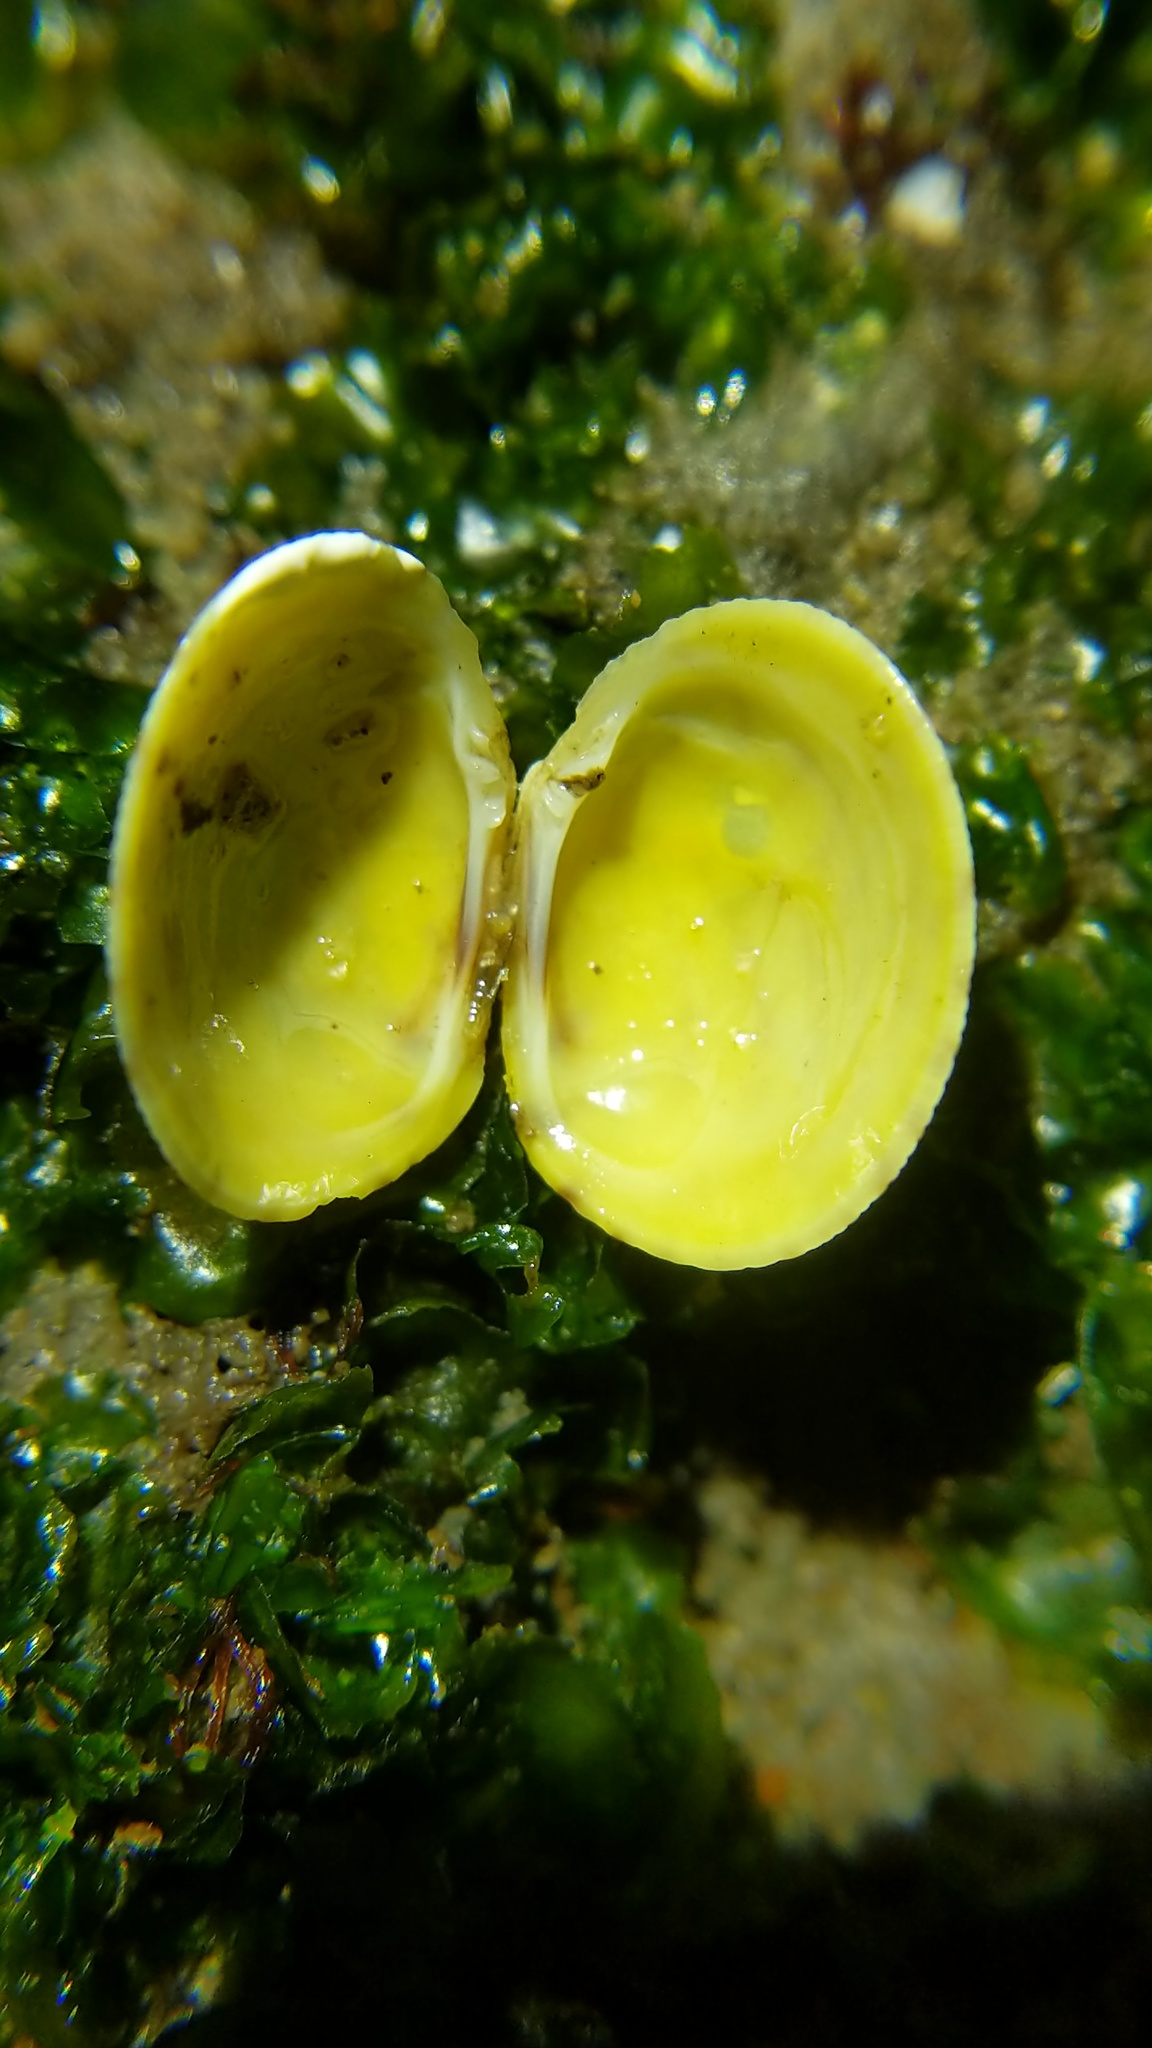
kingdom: Animalia
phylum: Mollusca
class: Bivalvia
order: Venerida
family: Veneridae
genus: Leukoma
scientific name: Leukoma staminea
